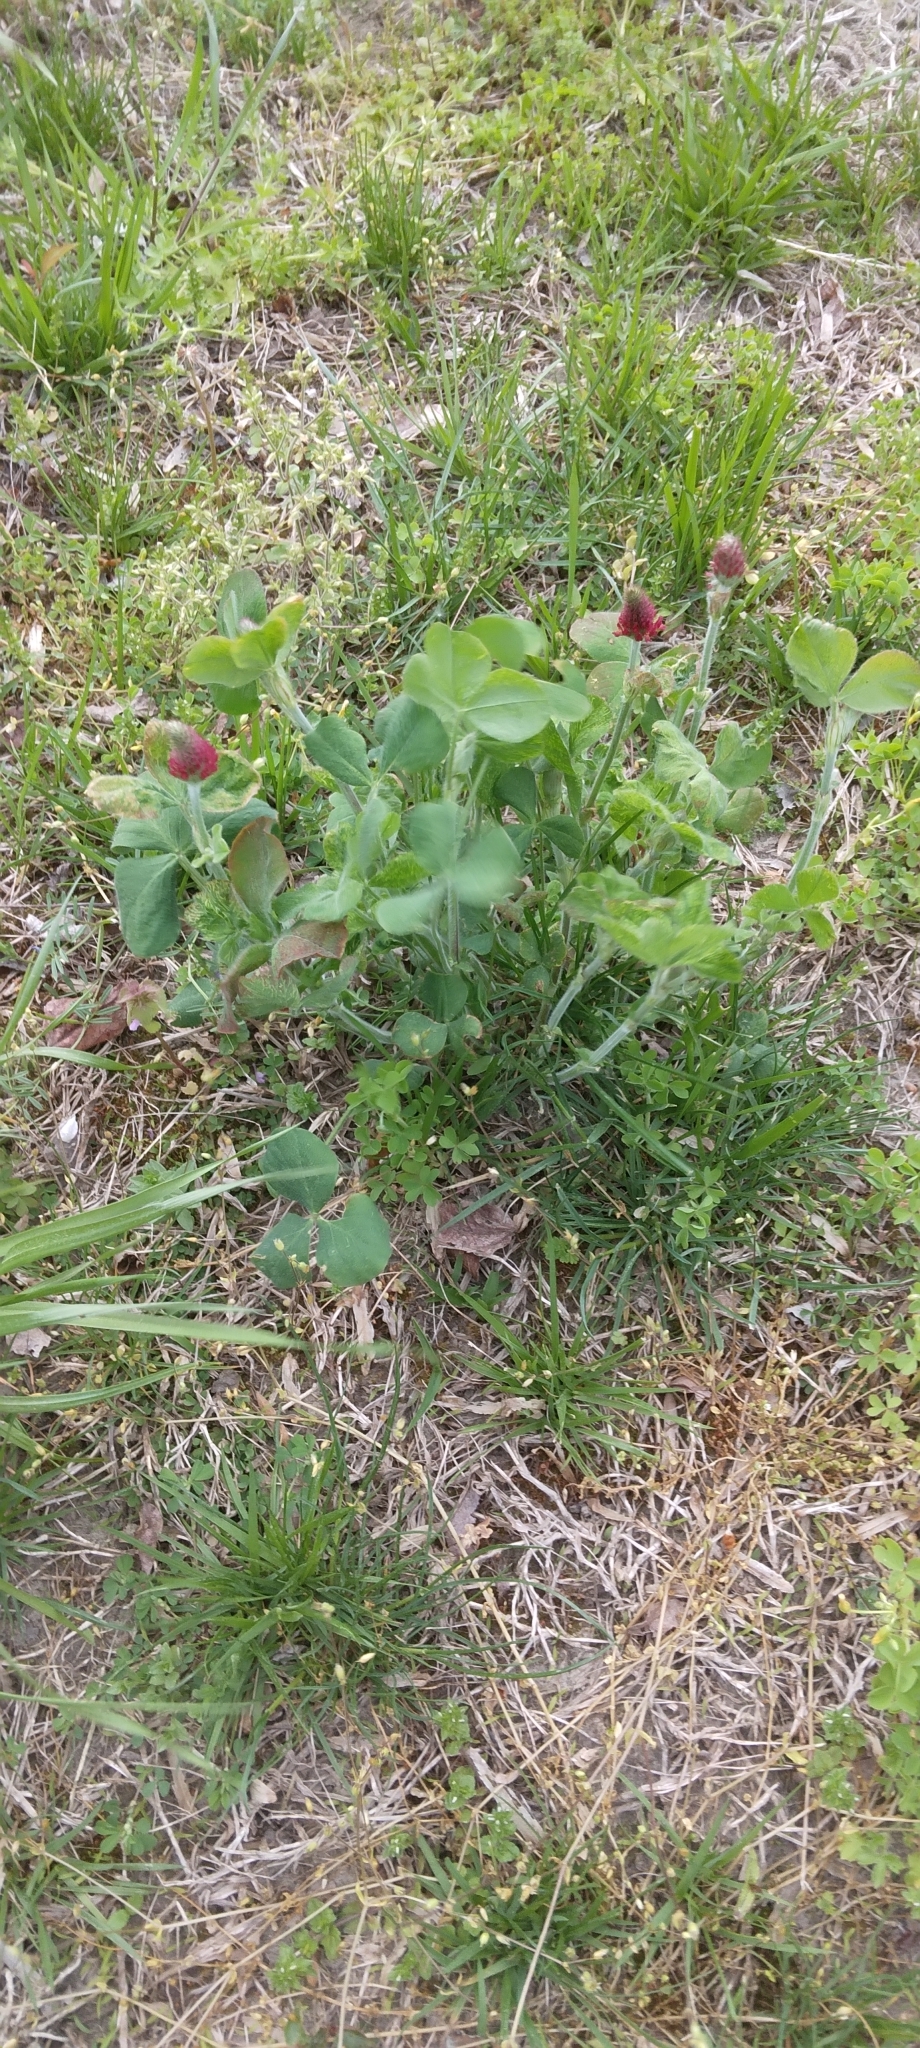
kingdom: Plantae
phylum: Tracheophyta
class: Magnoliopsida
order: Fabales
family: Fabaceae
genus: Trifolium
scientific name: Trifolium incarnatum
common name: Crimson clover
